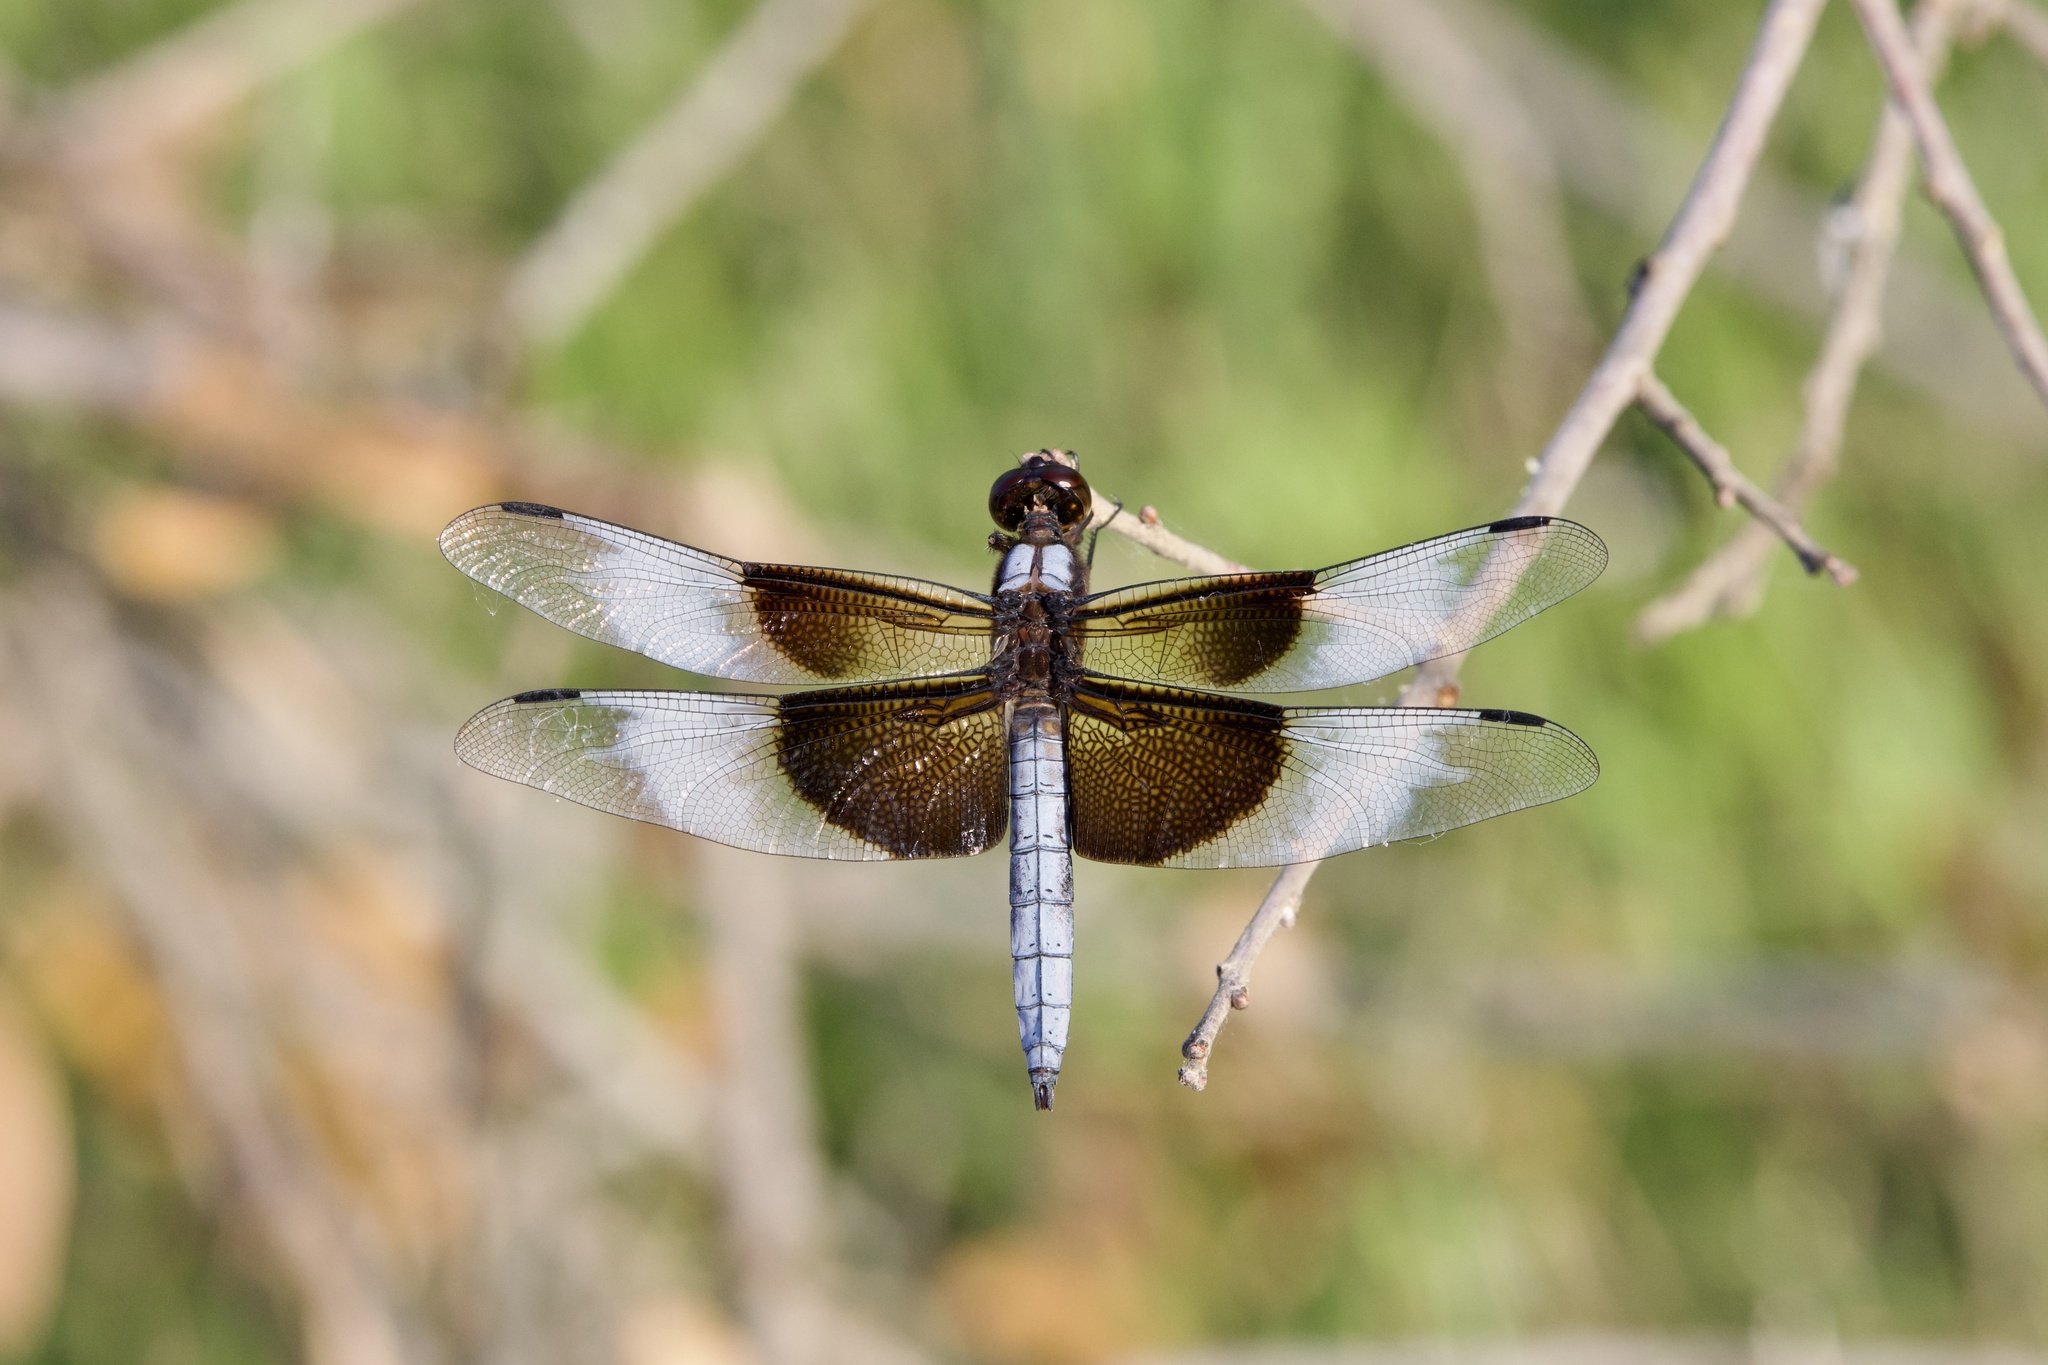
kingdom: Animalia
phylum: Arthropoda
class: Insecta
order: Odonata
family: Libellulidae
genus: Libellula
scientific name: Libellula luctuosa
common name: Widow skimmer
